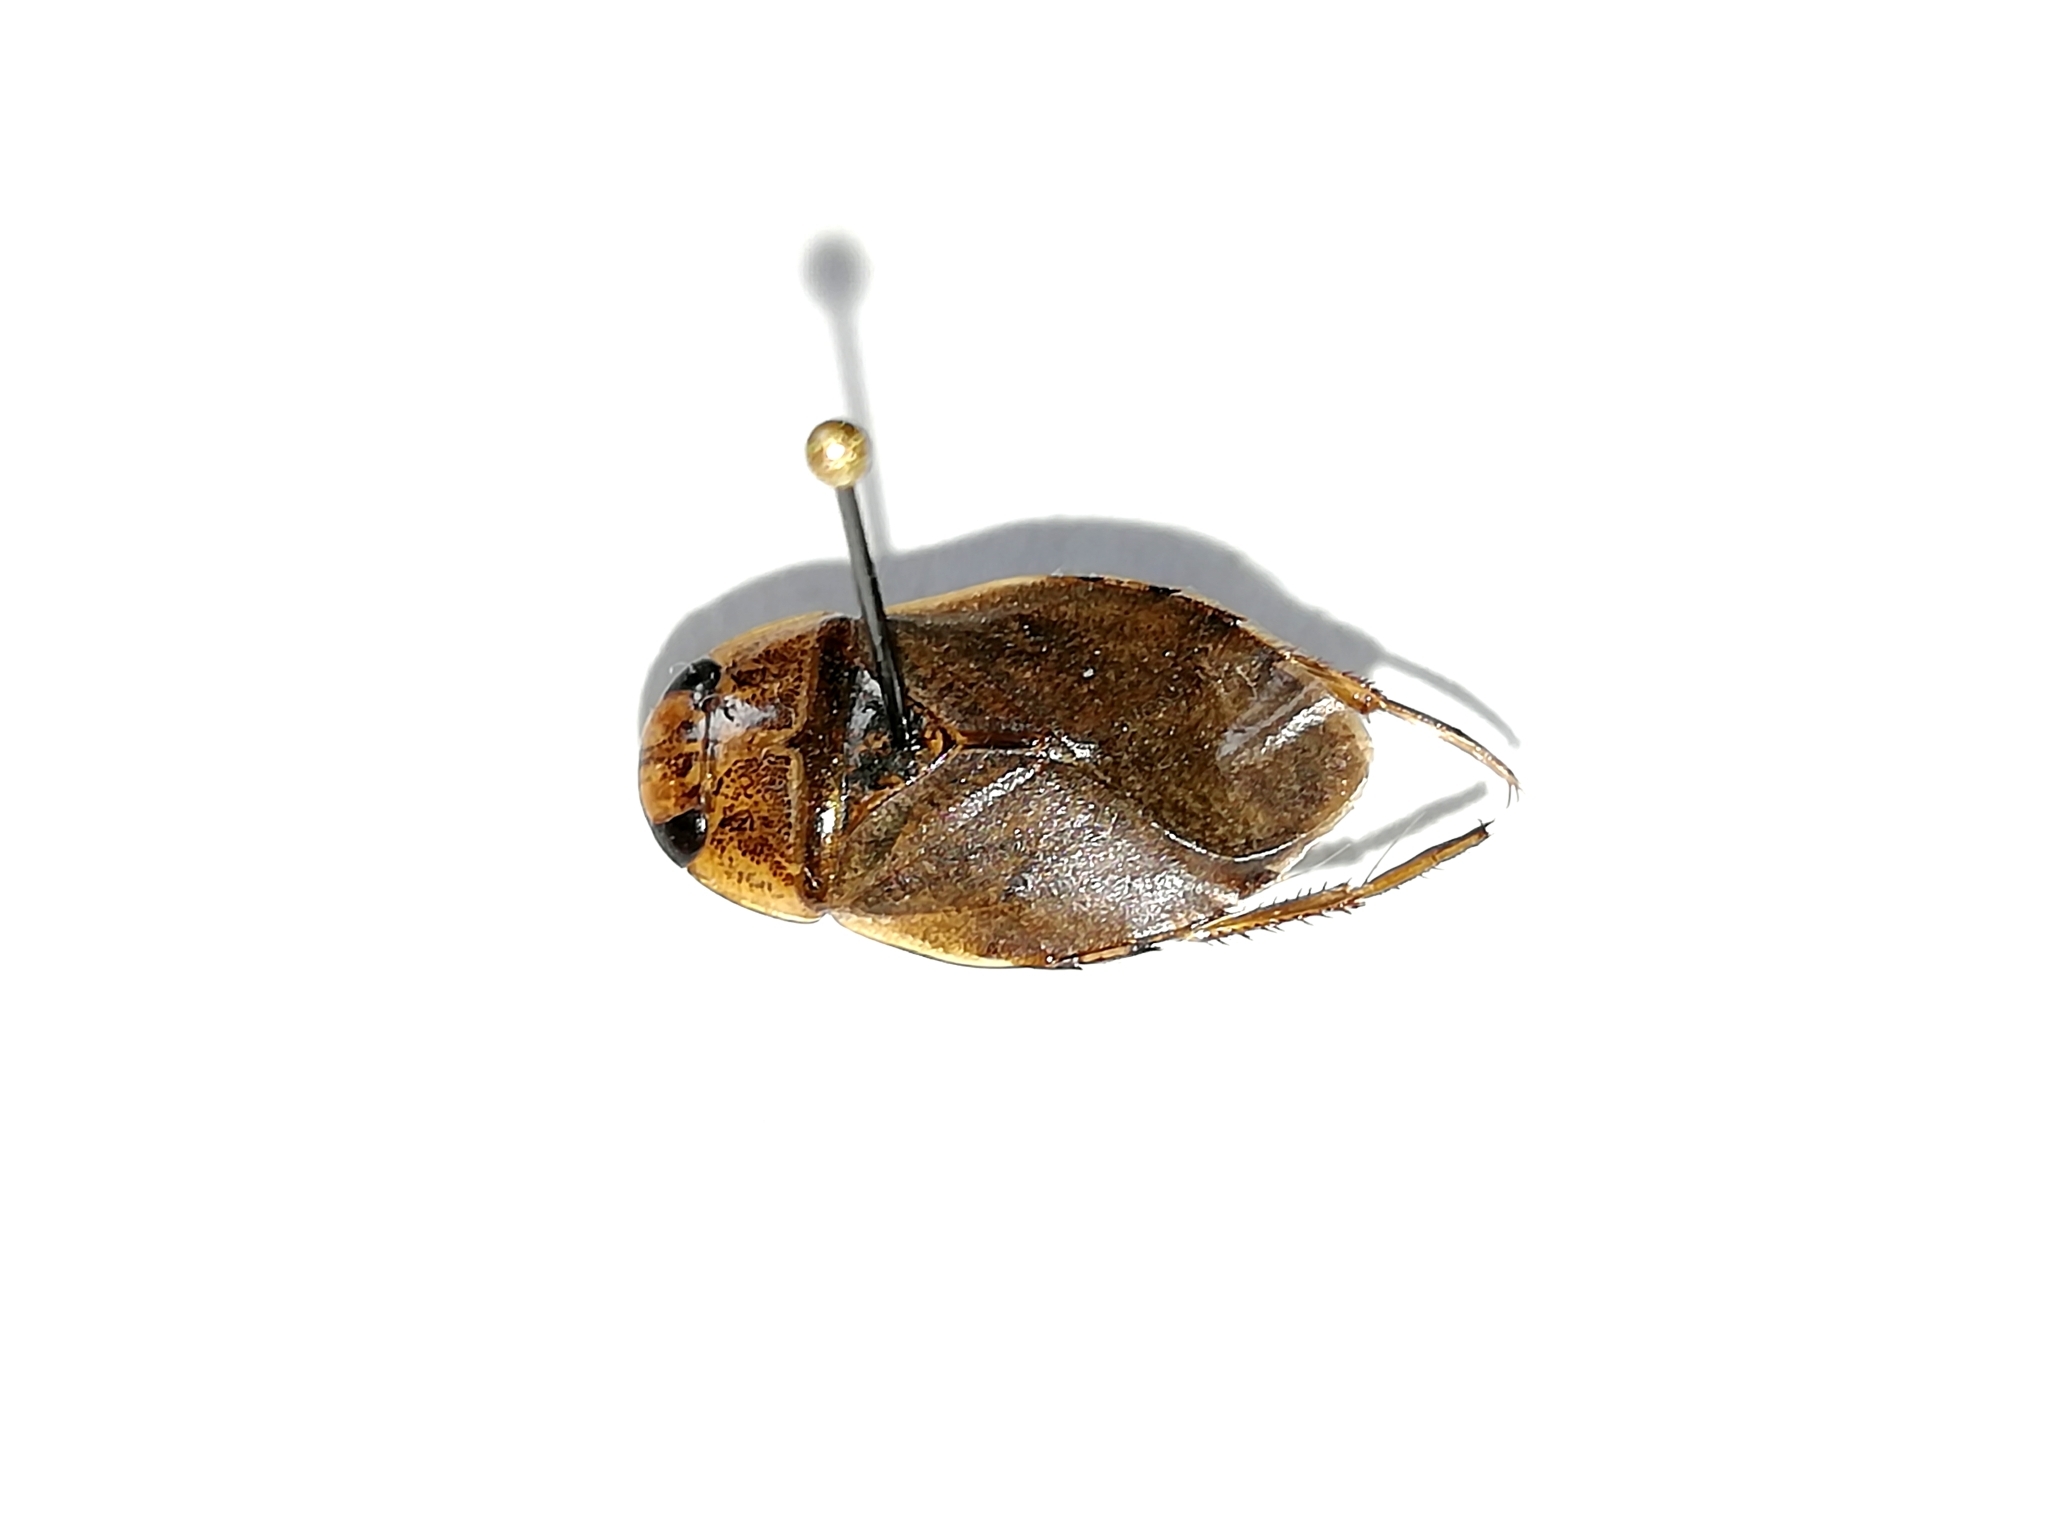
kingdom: Animalia
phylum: Arthropoda
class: Insecta
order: Hemiptera
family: Naucoridae
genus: Ilyocoris
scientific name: Ilyocoris cimicoides
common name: Saucer bugs
